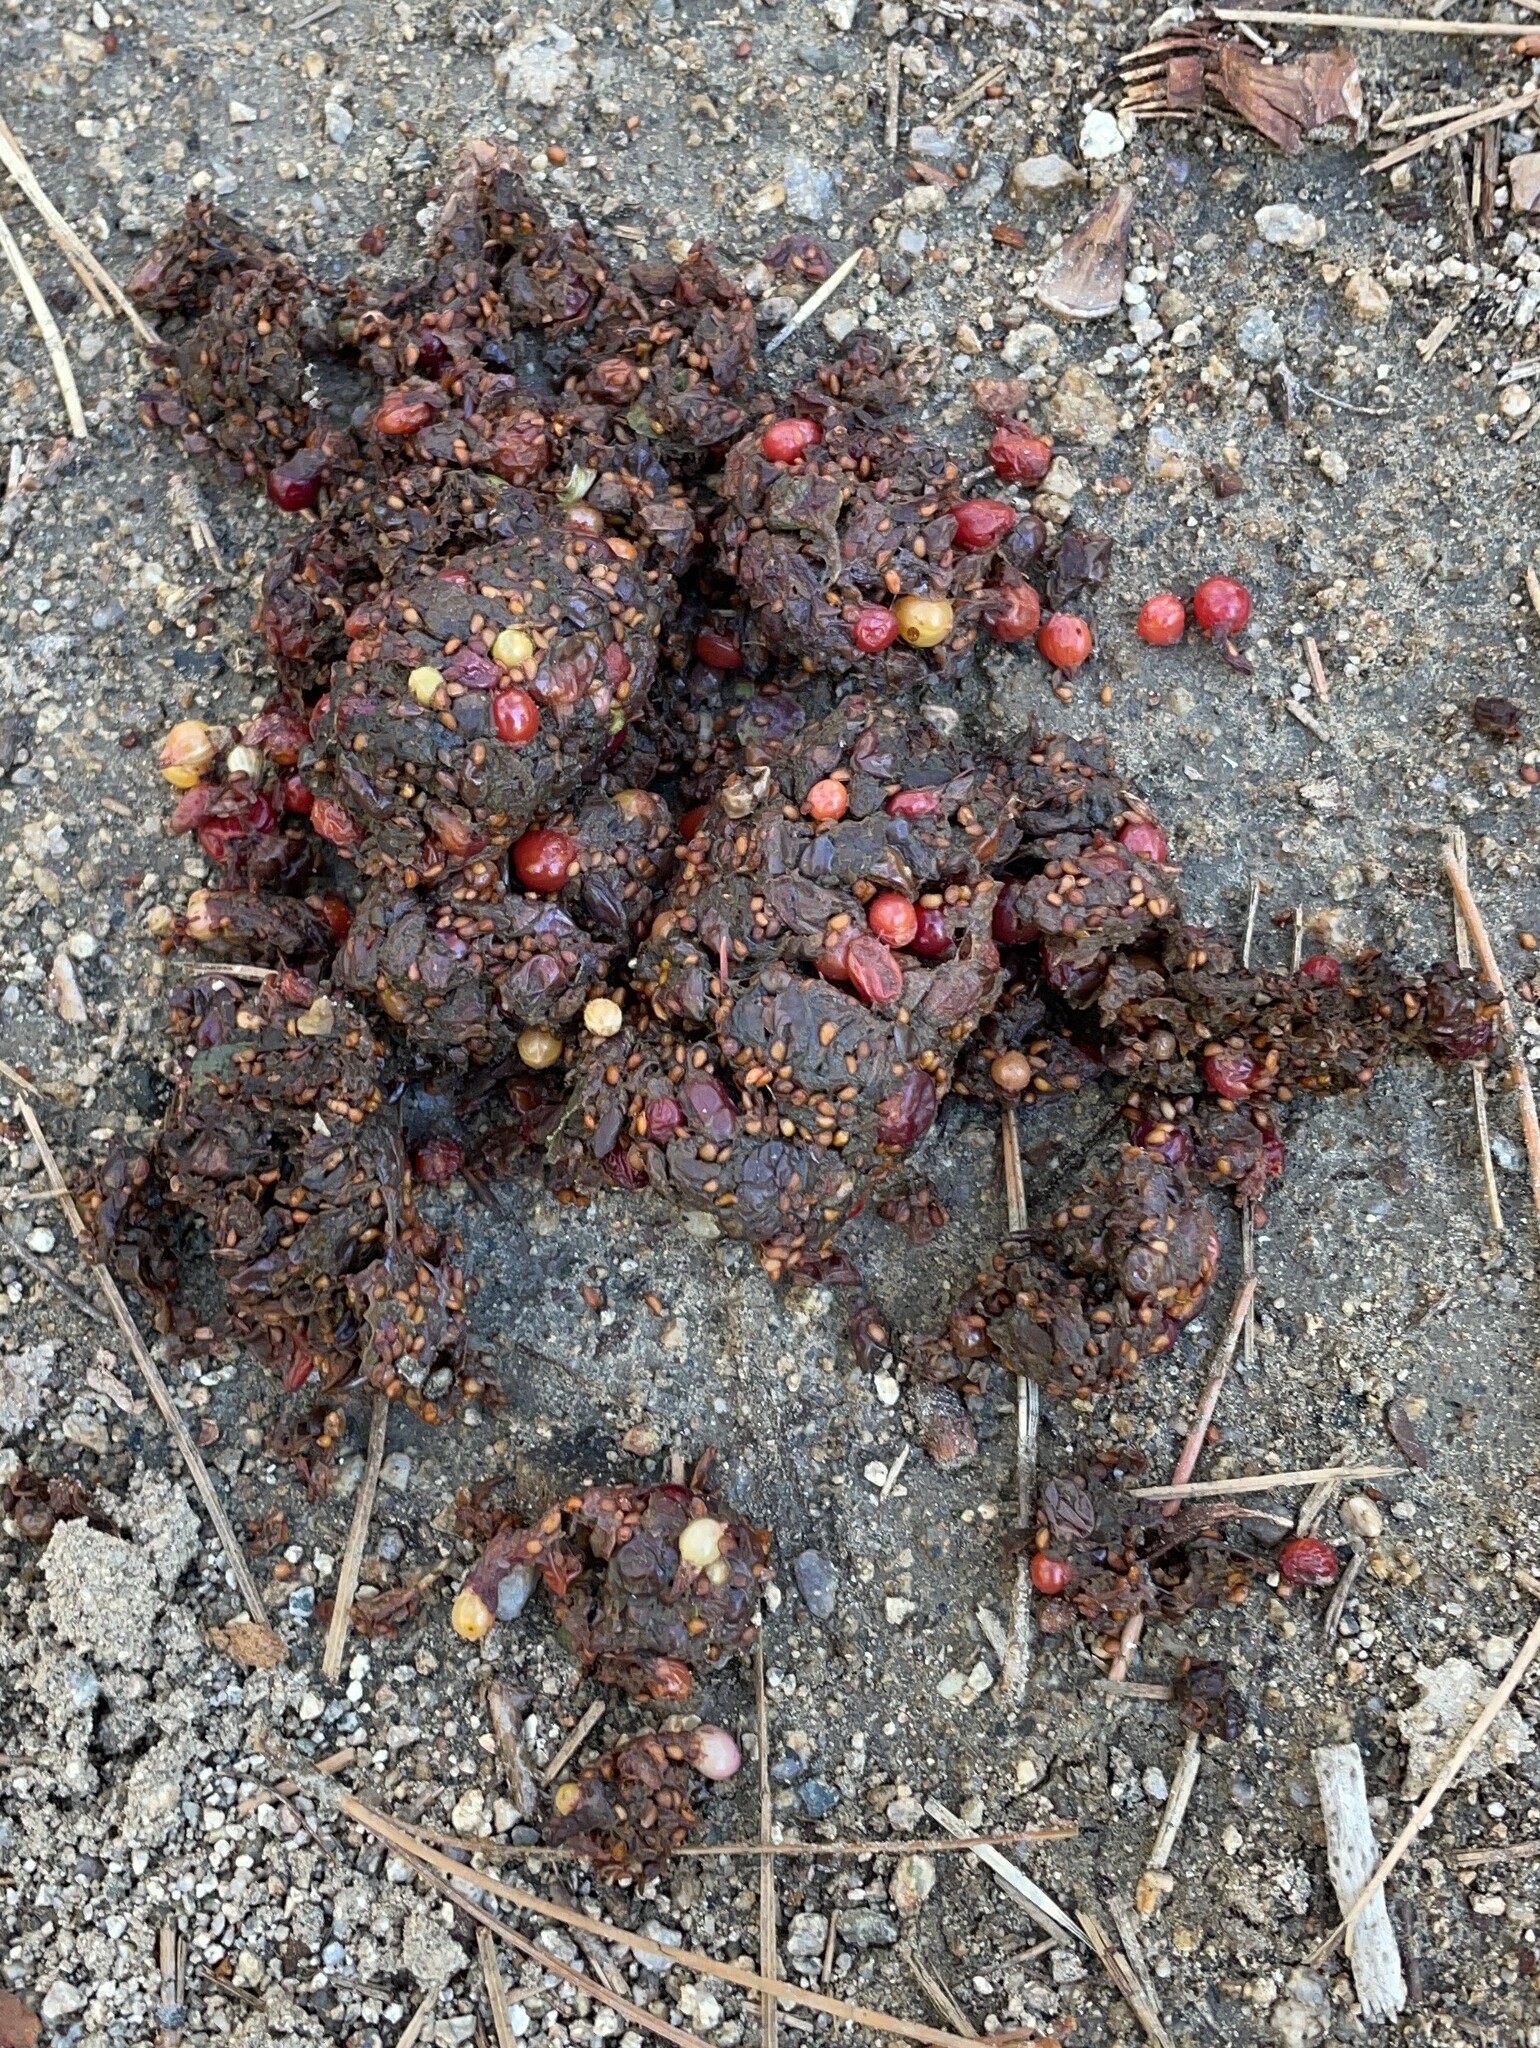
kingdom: Animalia
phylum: Chordata
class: Mammalia
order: Carnivora
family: Ursidae
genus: Ursus
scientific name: Ursus americanus
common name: American black bear
